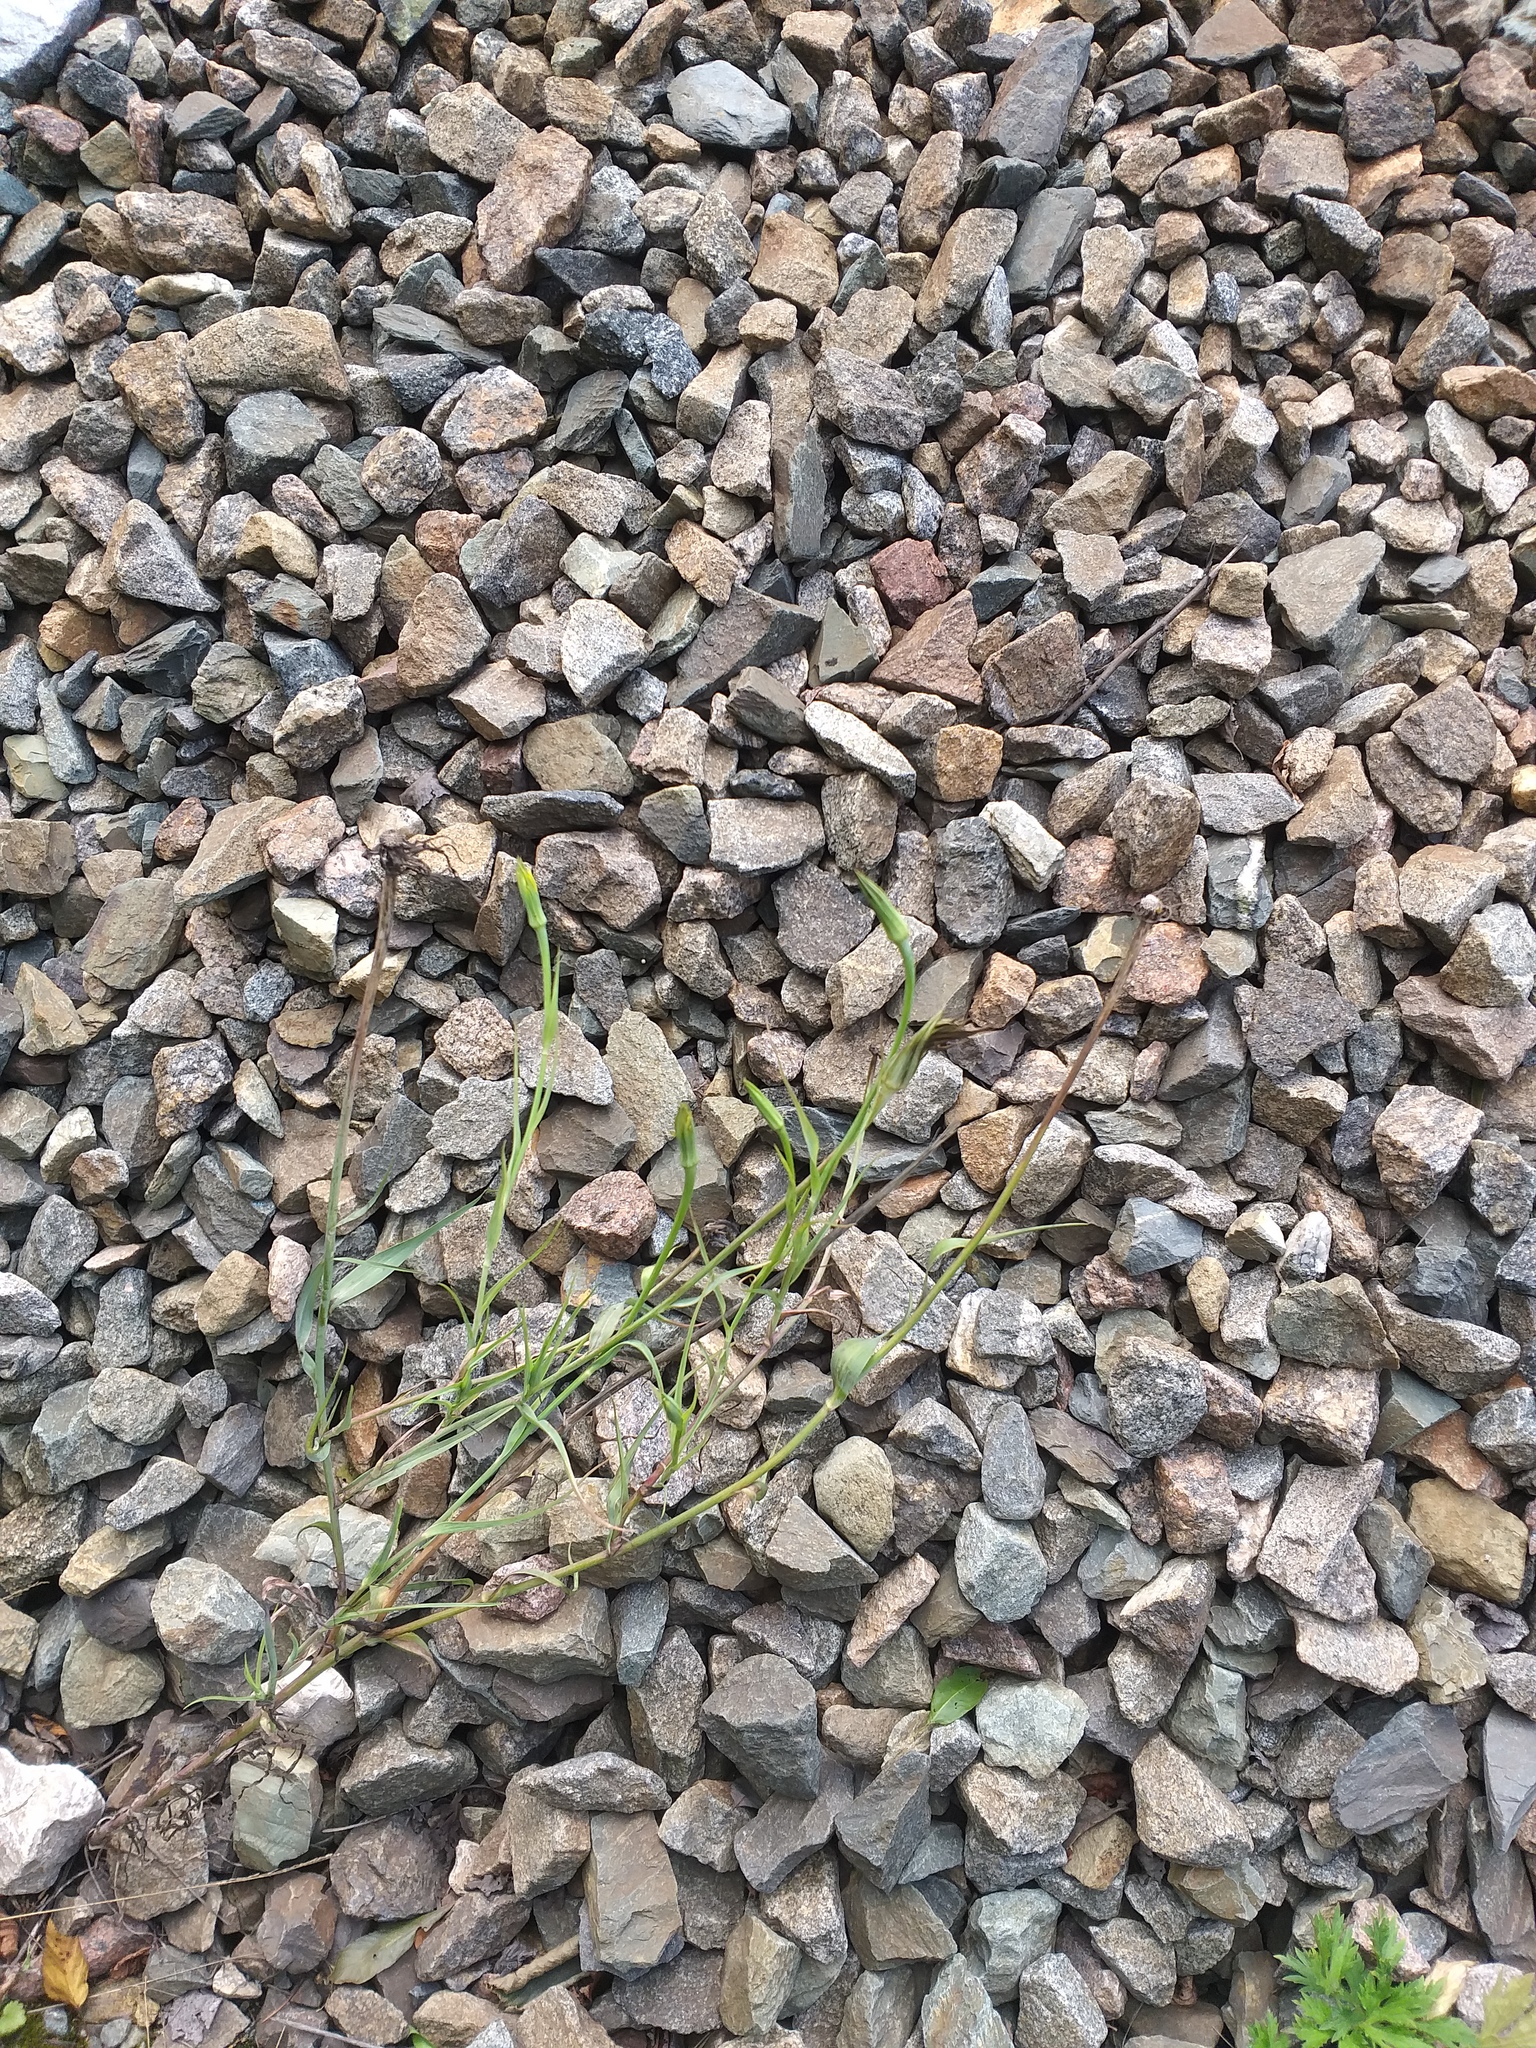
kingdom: Plantae
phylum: Tracheophyta
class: Magnoliopsida
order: Asterales
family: Asteraceae
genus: Tragopogon
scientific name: Tragopogon dubius
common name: Yellow salsify
